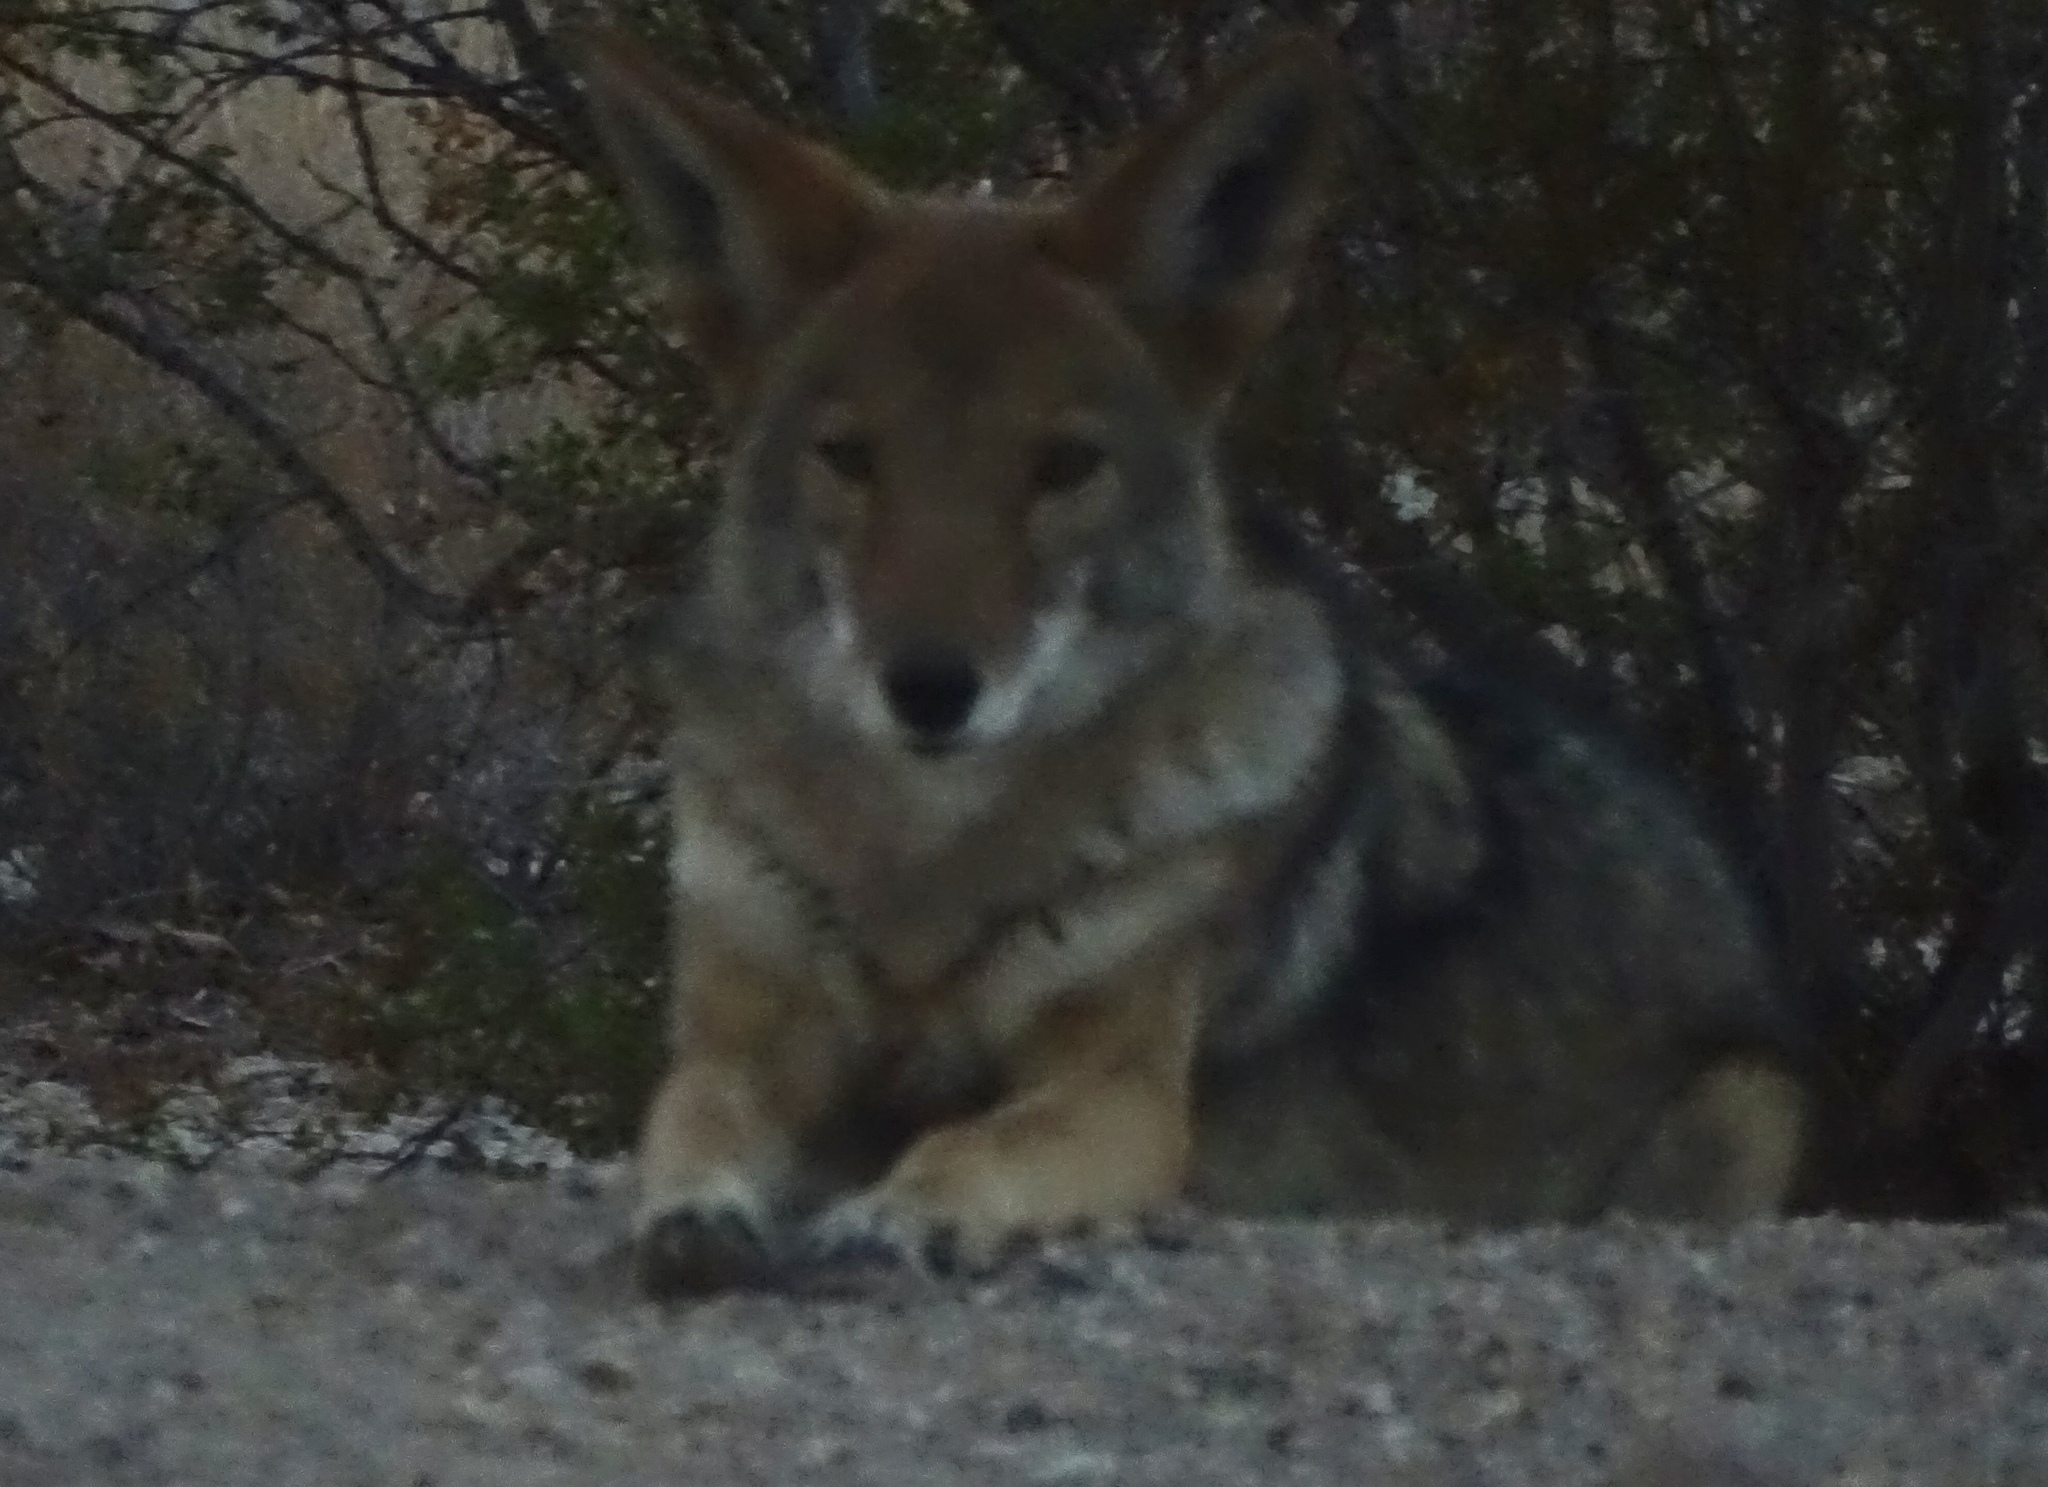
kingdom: Animalia
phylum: Chordata
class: Mammalia
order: Carnivora
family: Canidae
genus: Canis
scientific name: Canis latrans
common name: Coyote
